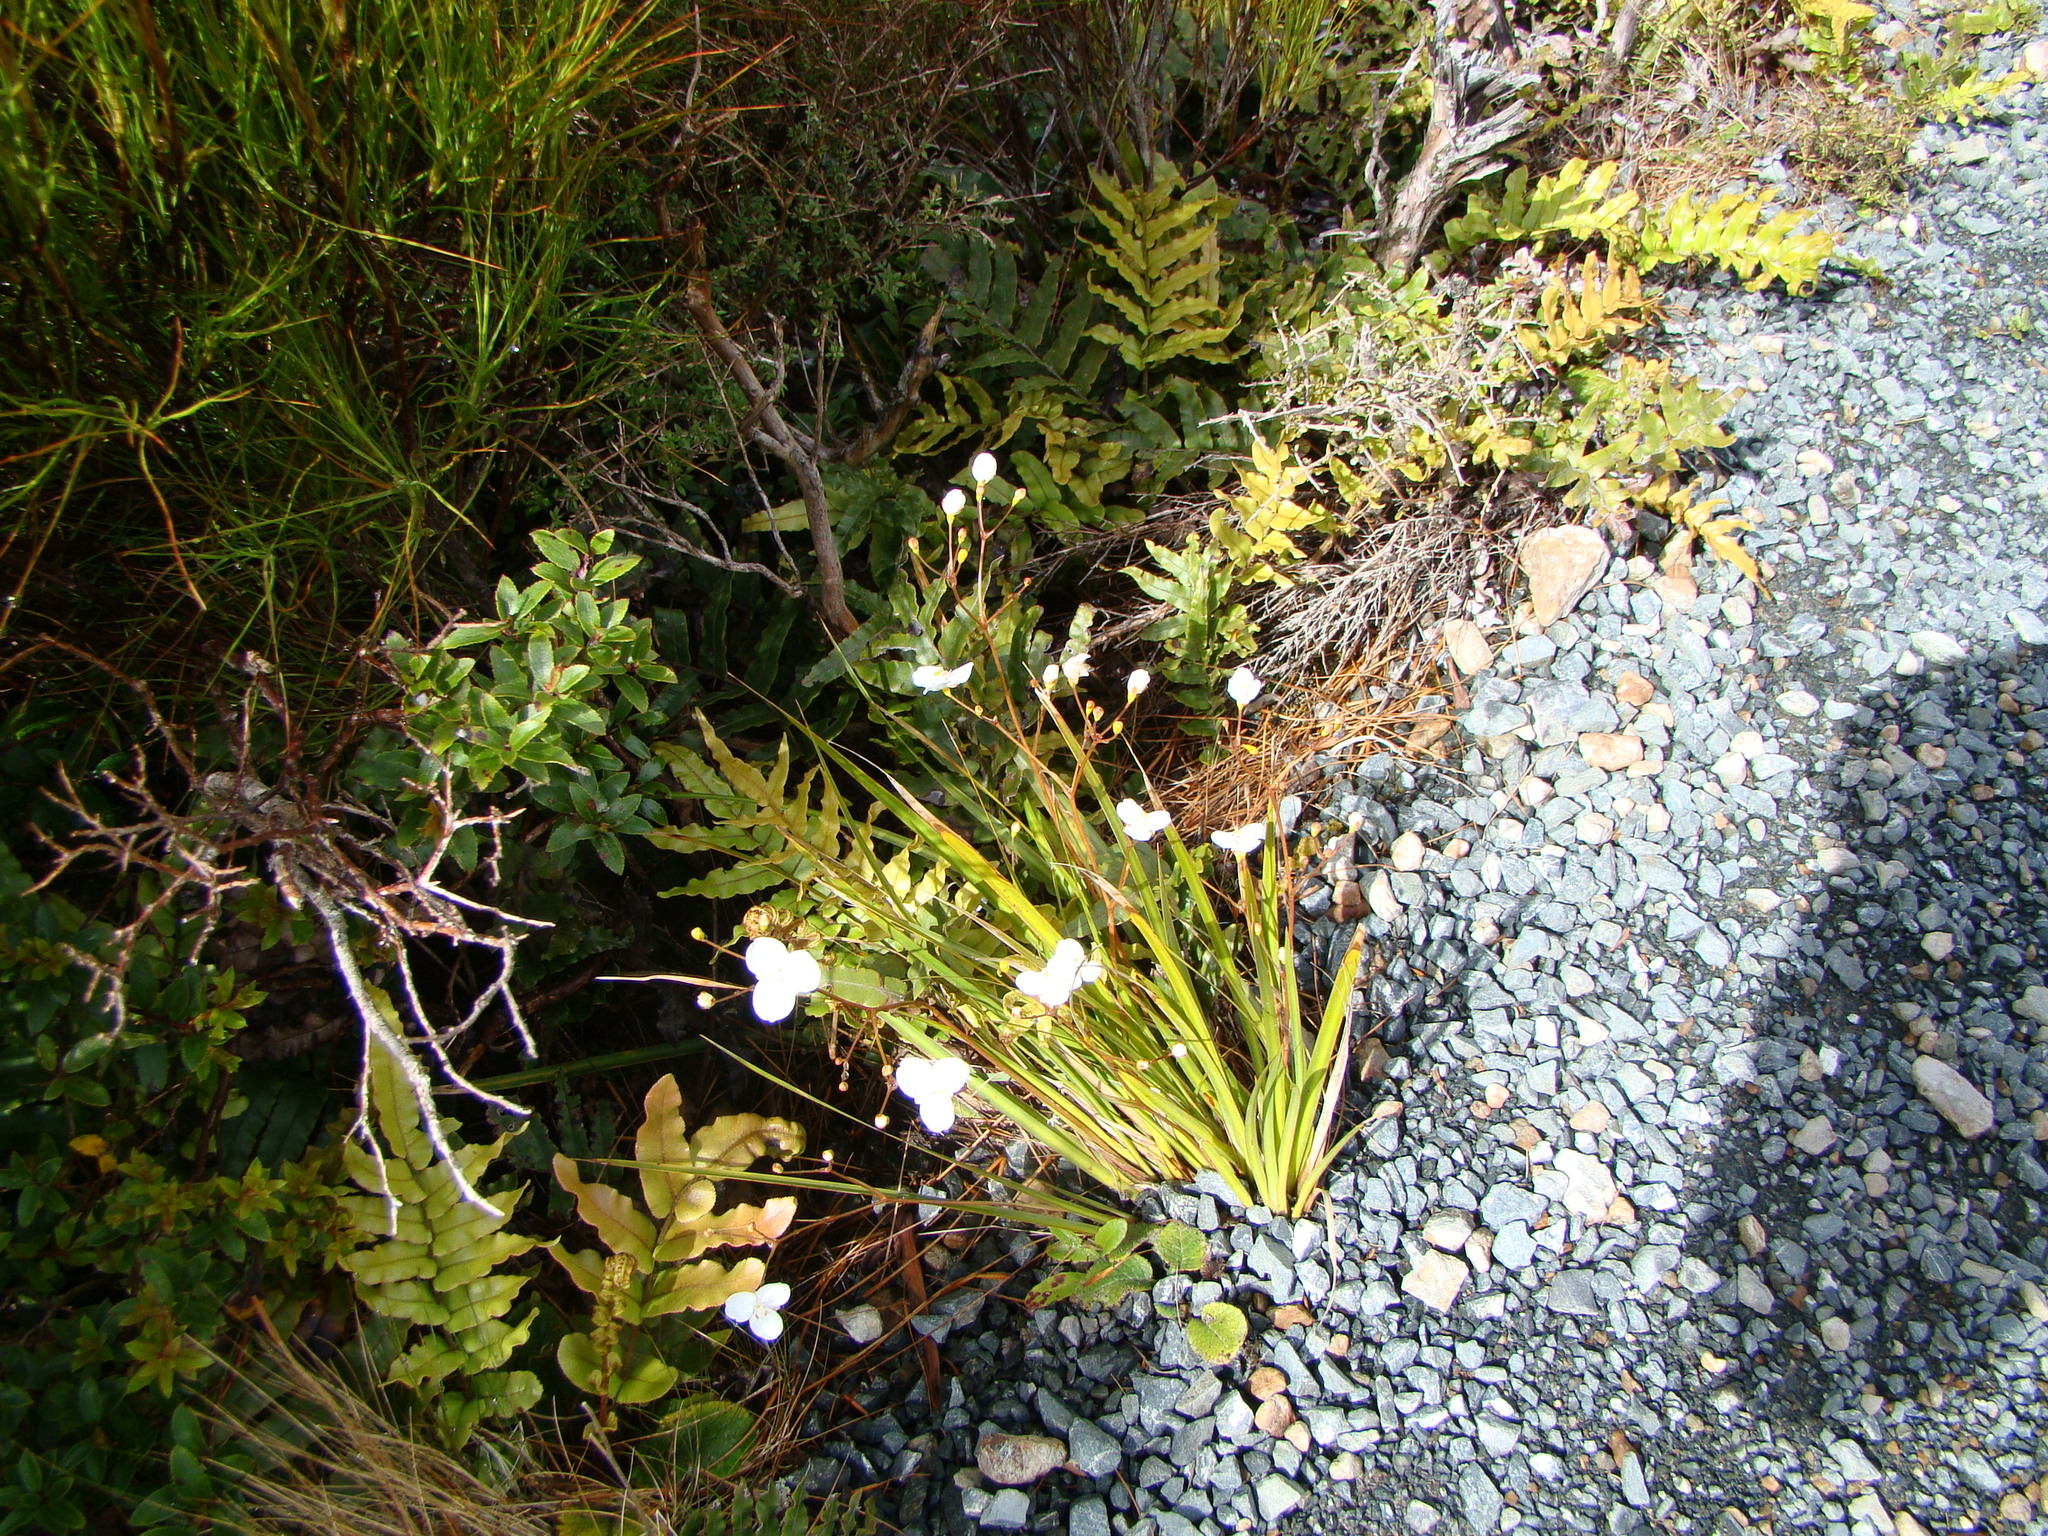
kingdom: Plantae
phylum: Tracheophyta
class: Liliopsida
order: Asparagales
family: Iridaceae
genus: Libertia
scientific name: Libertia ixioides
